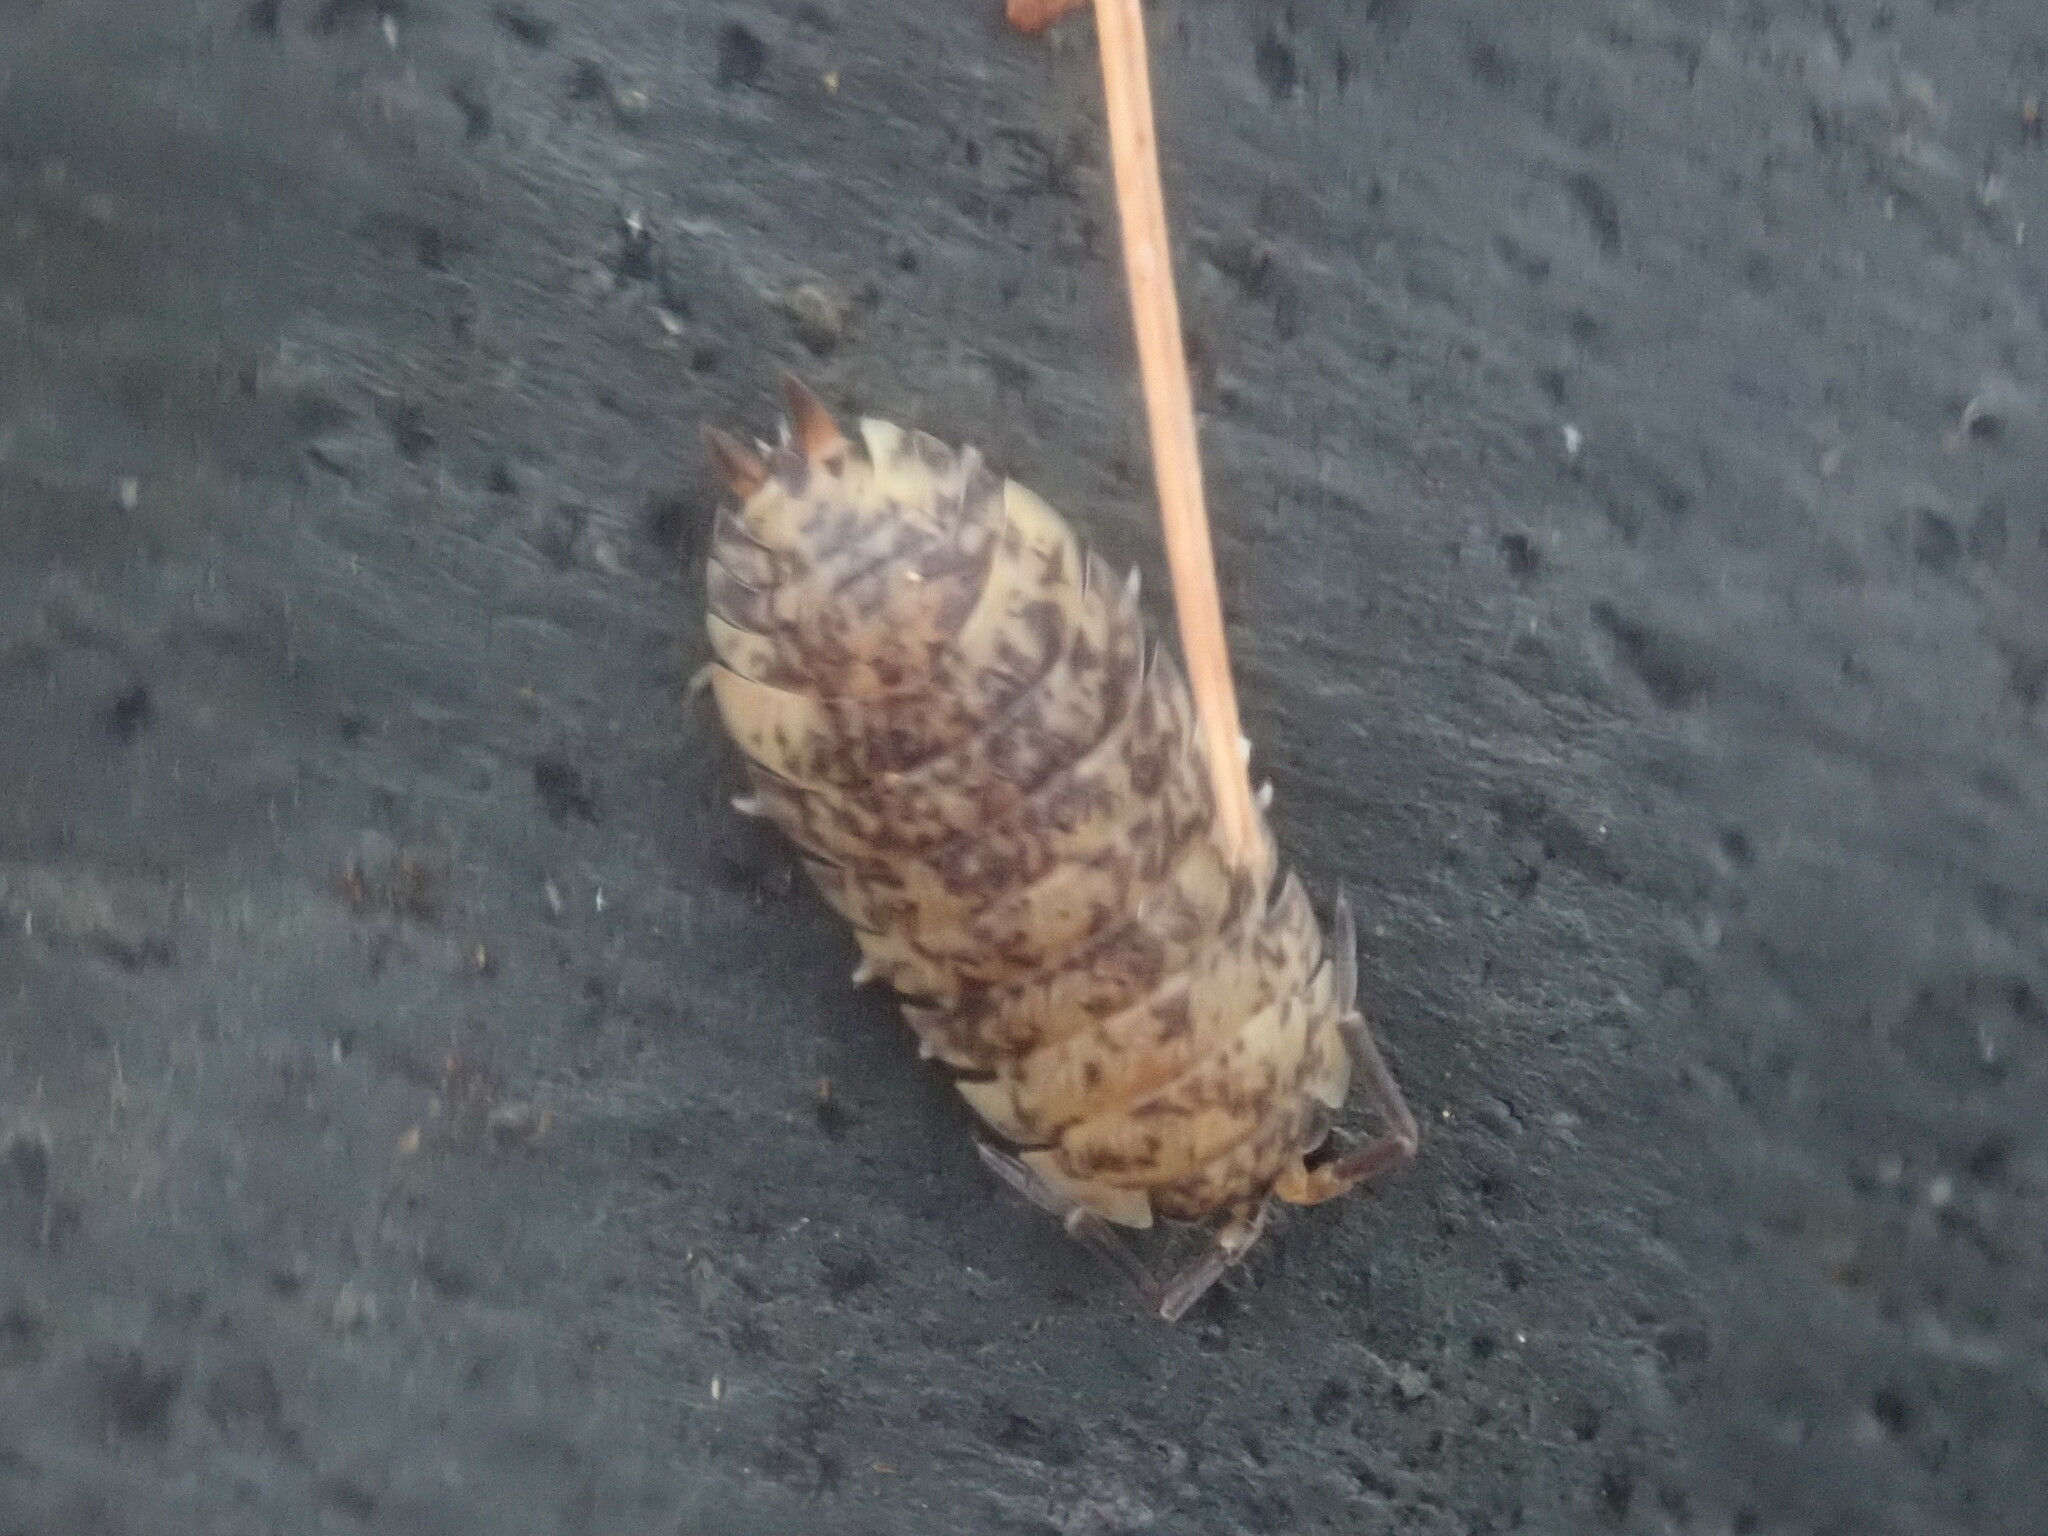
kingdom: Animalia
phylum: Arthropoda
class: Malacostraca
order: Isopoda
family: Porcellionidae
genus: Porcellio
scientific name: Porcellio scaber
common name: Common rough woodlouse
